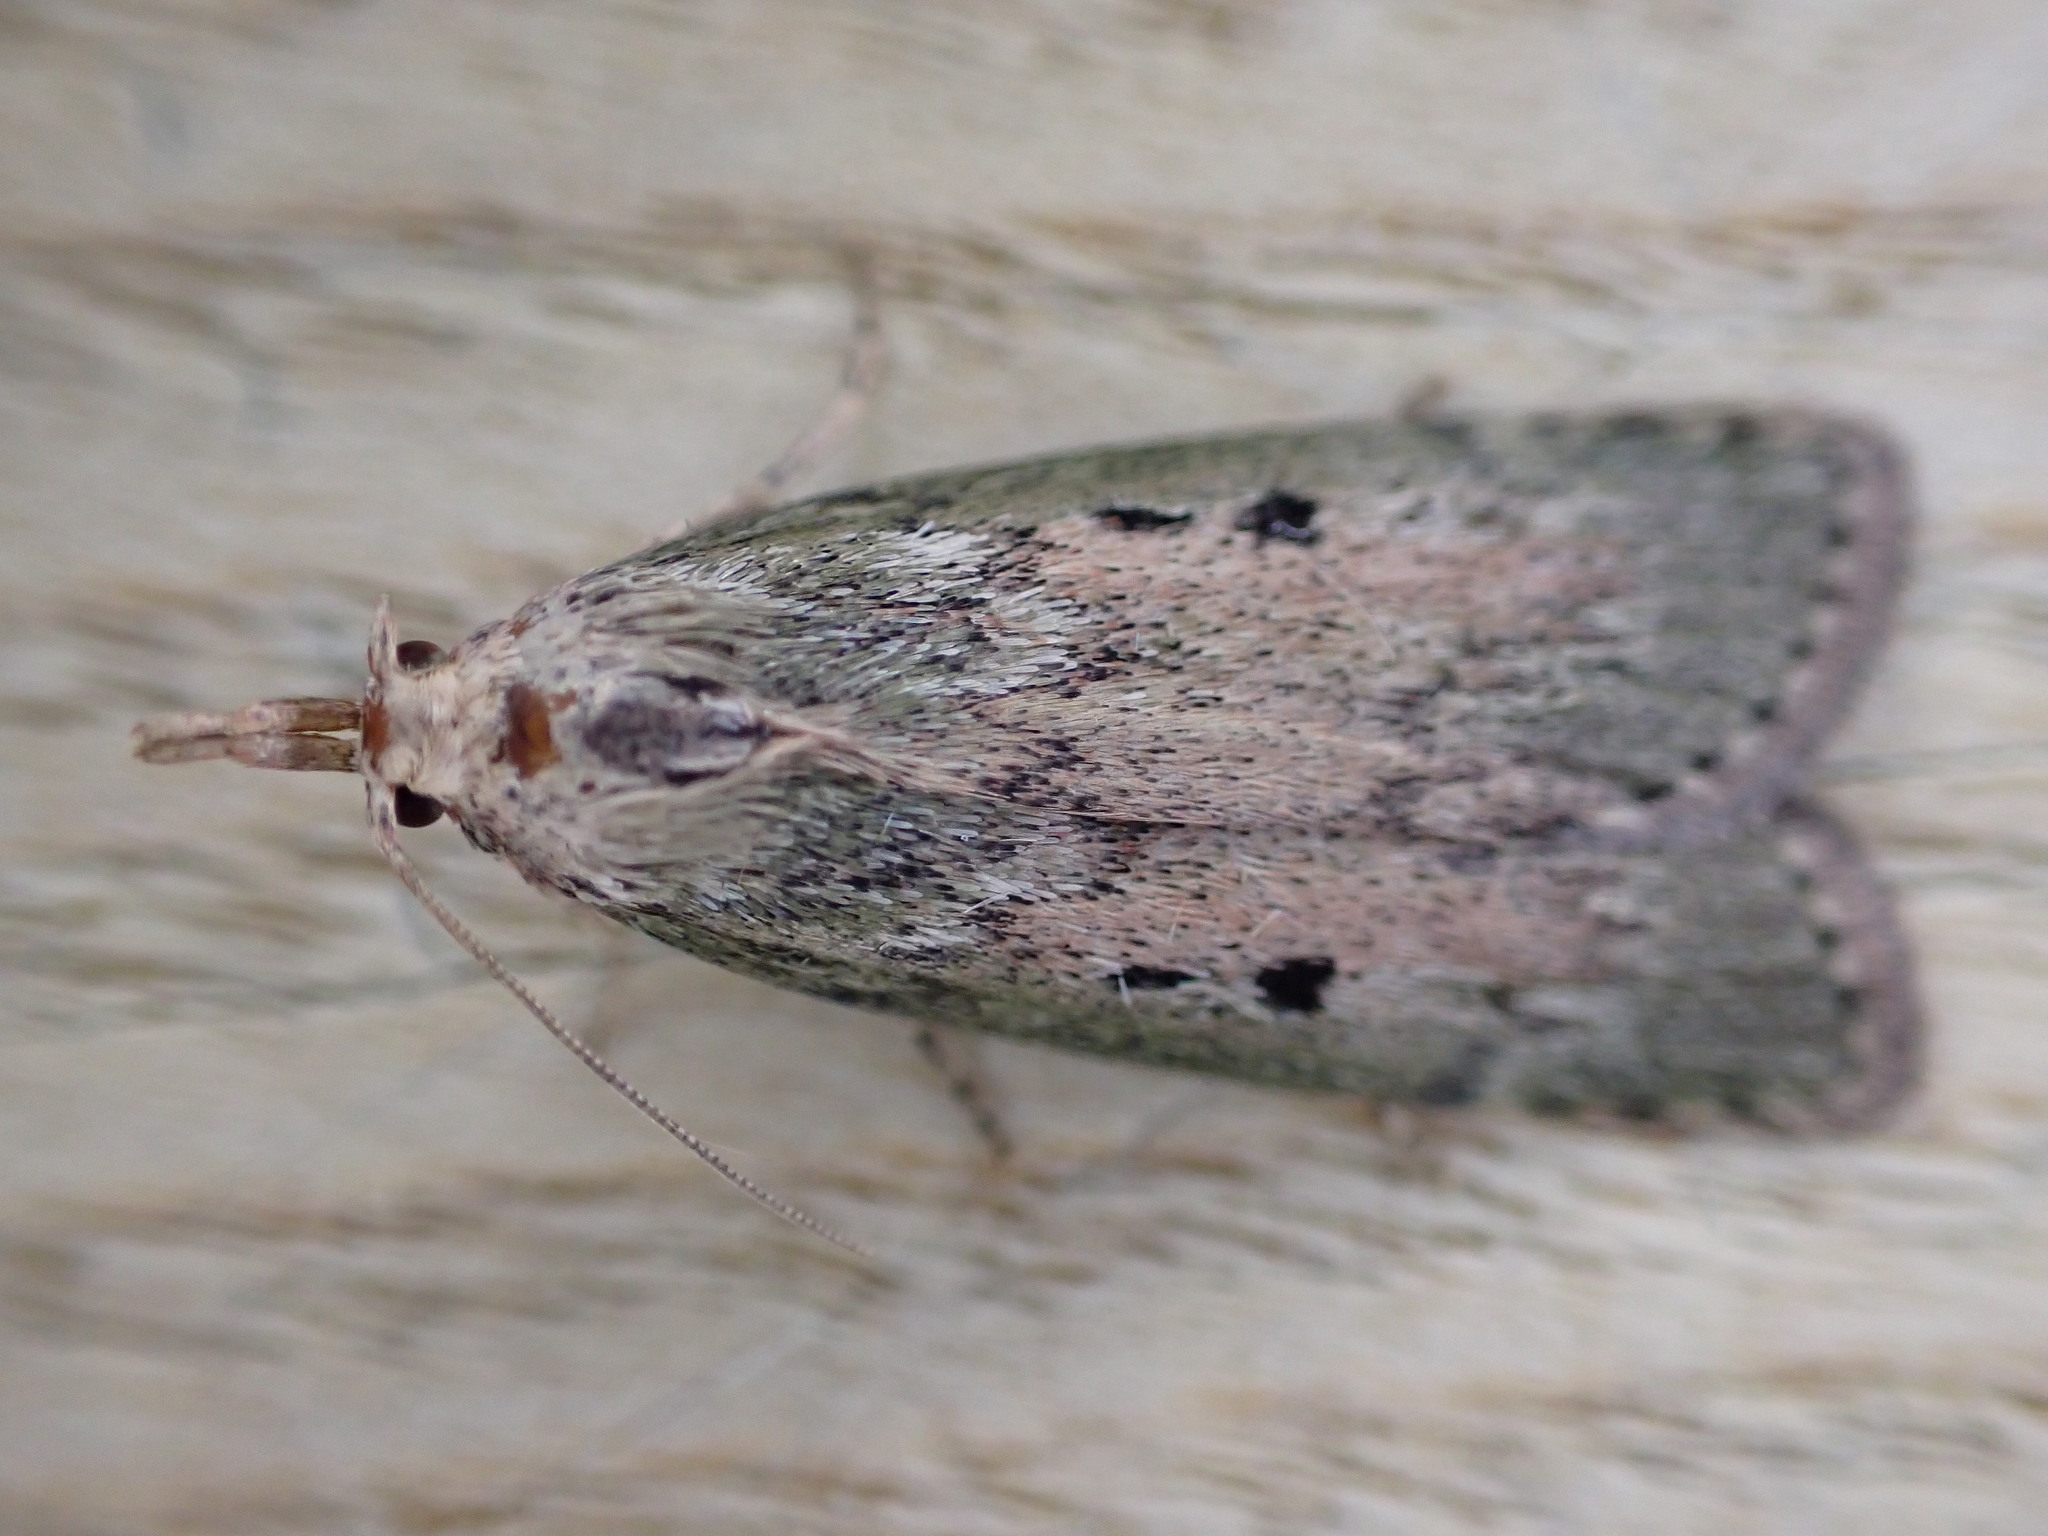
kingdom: Animalia
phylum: Arthropoda
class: Insecta
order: Lepidoptera
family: Pyralidae
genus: Aphomia
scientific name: Aphomia sociella
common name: Bee moth
